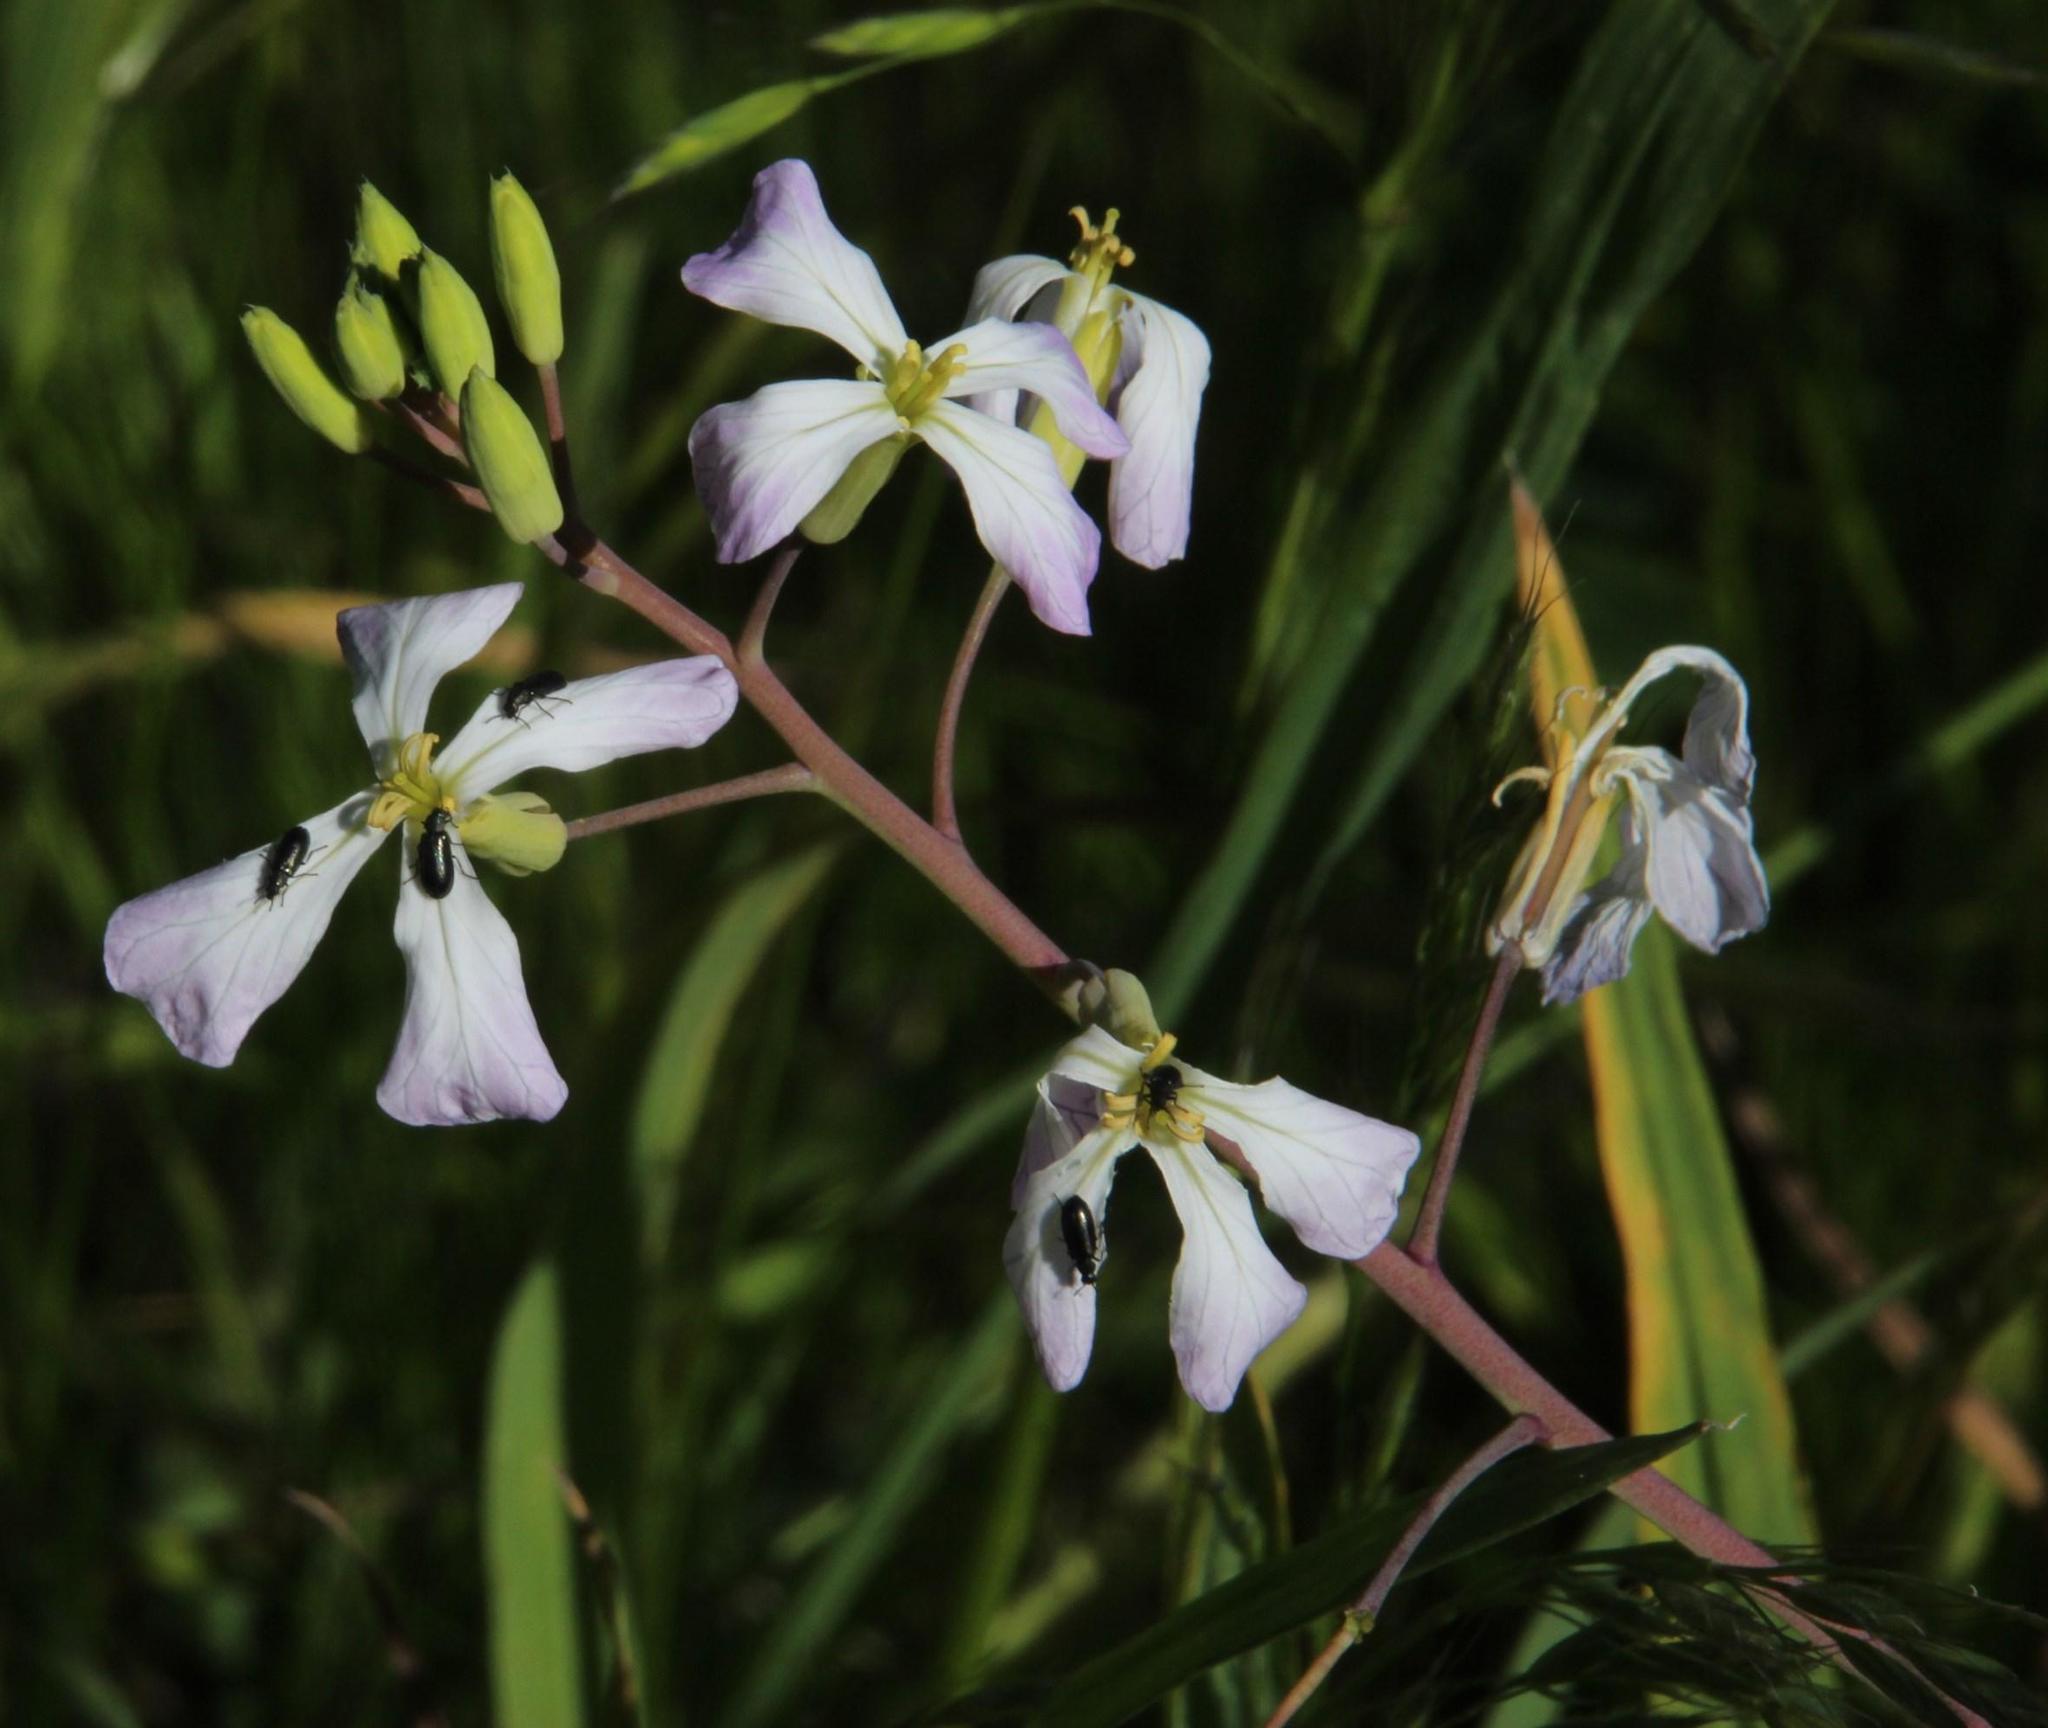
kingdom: Plantae
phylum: Tracheophyta
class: Magnoliopsida
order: Brassicales
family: Brassicaceae
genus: Raphanus
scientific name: Raphanus sativus
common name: Cultivated radish
